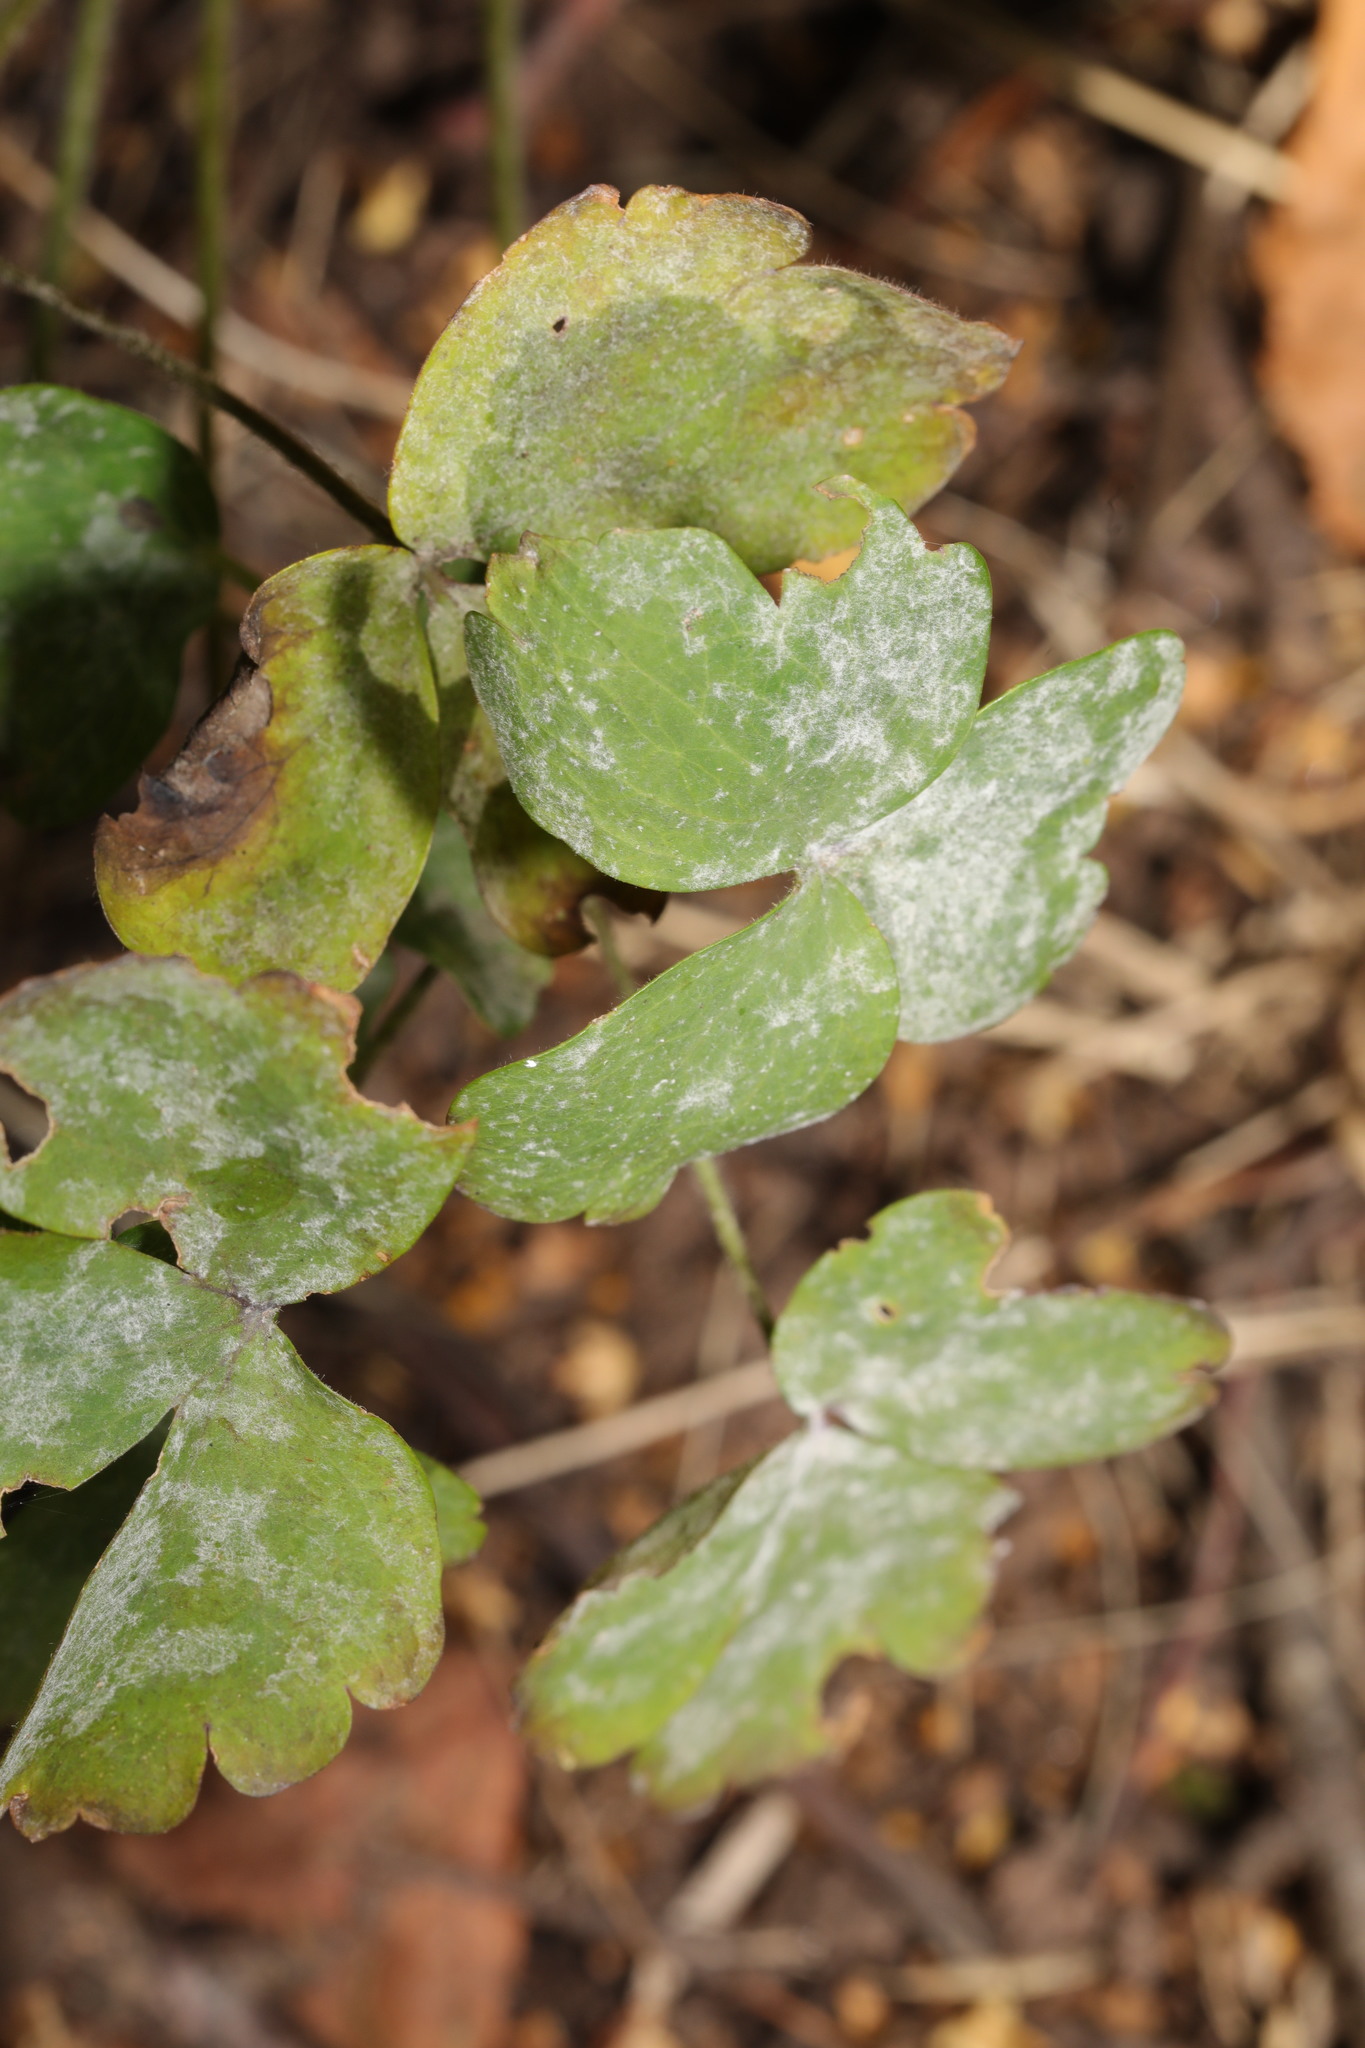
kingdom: Fungi
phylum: Ascomycota
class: Leotiomycetes
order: Helotiales
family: Erysiphaceae
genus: Erysiphe
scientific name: Erysiphe aquilegiae
